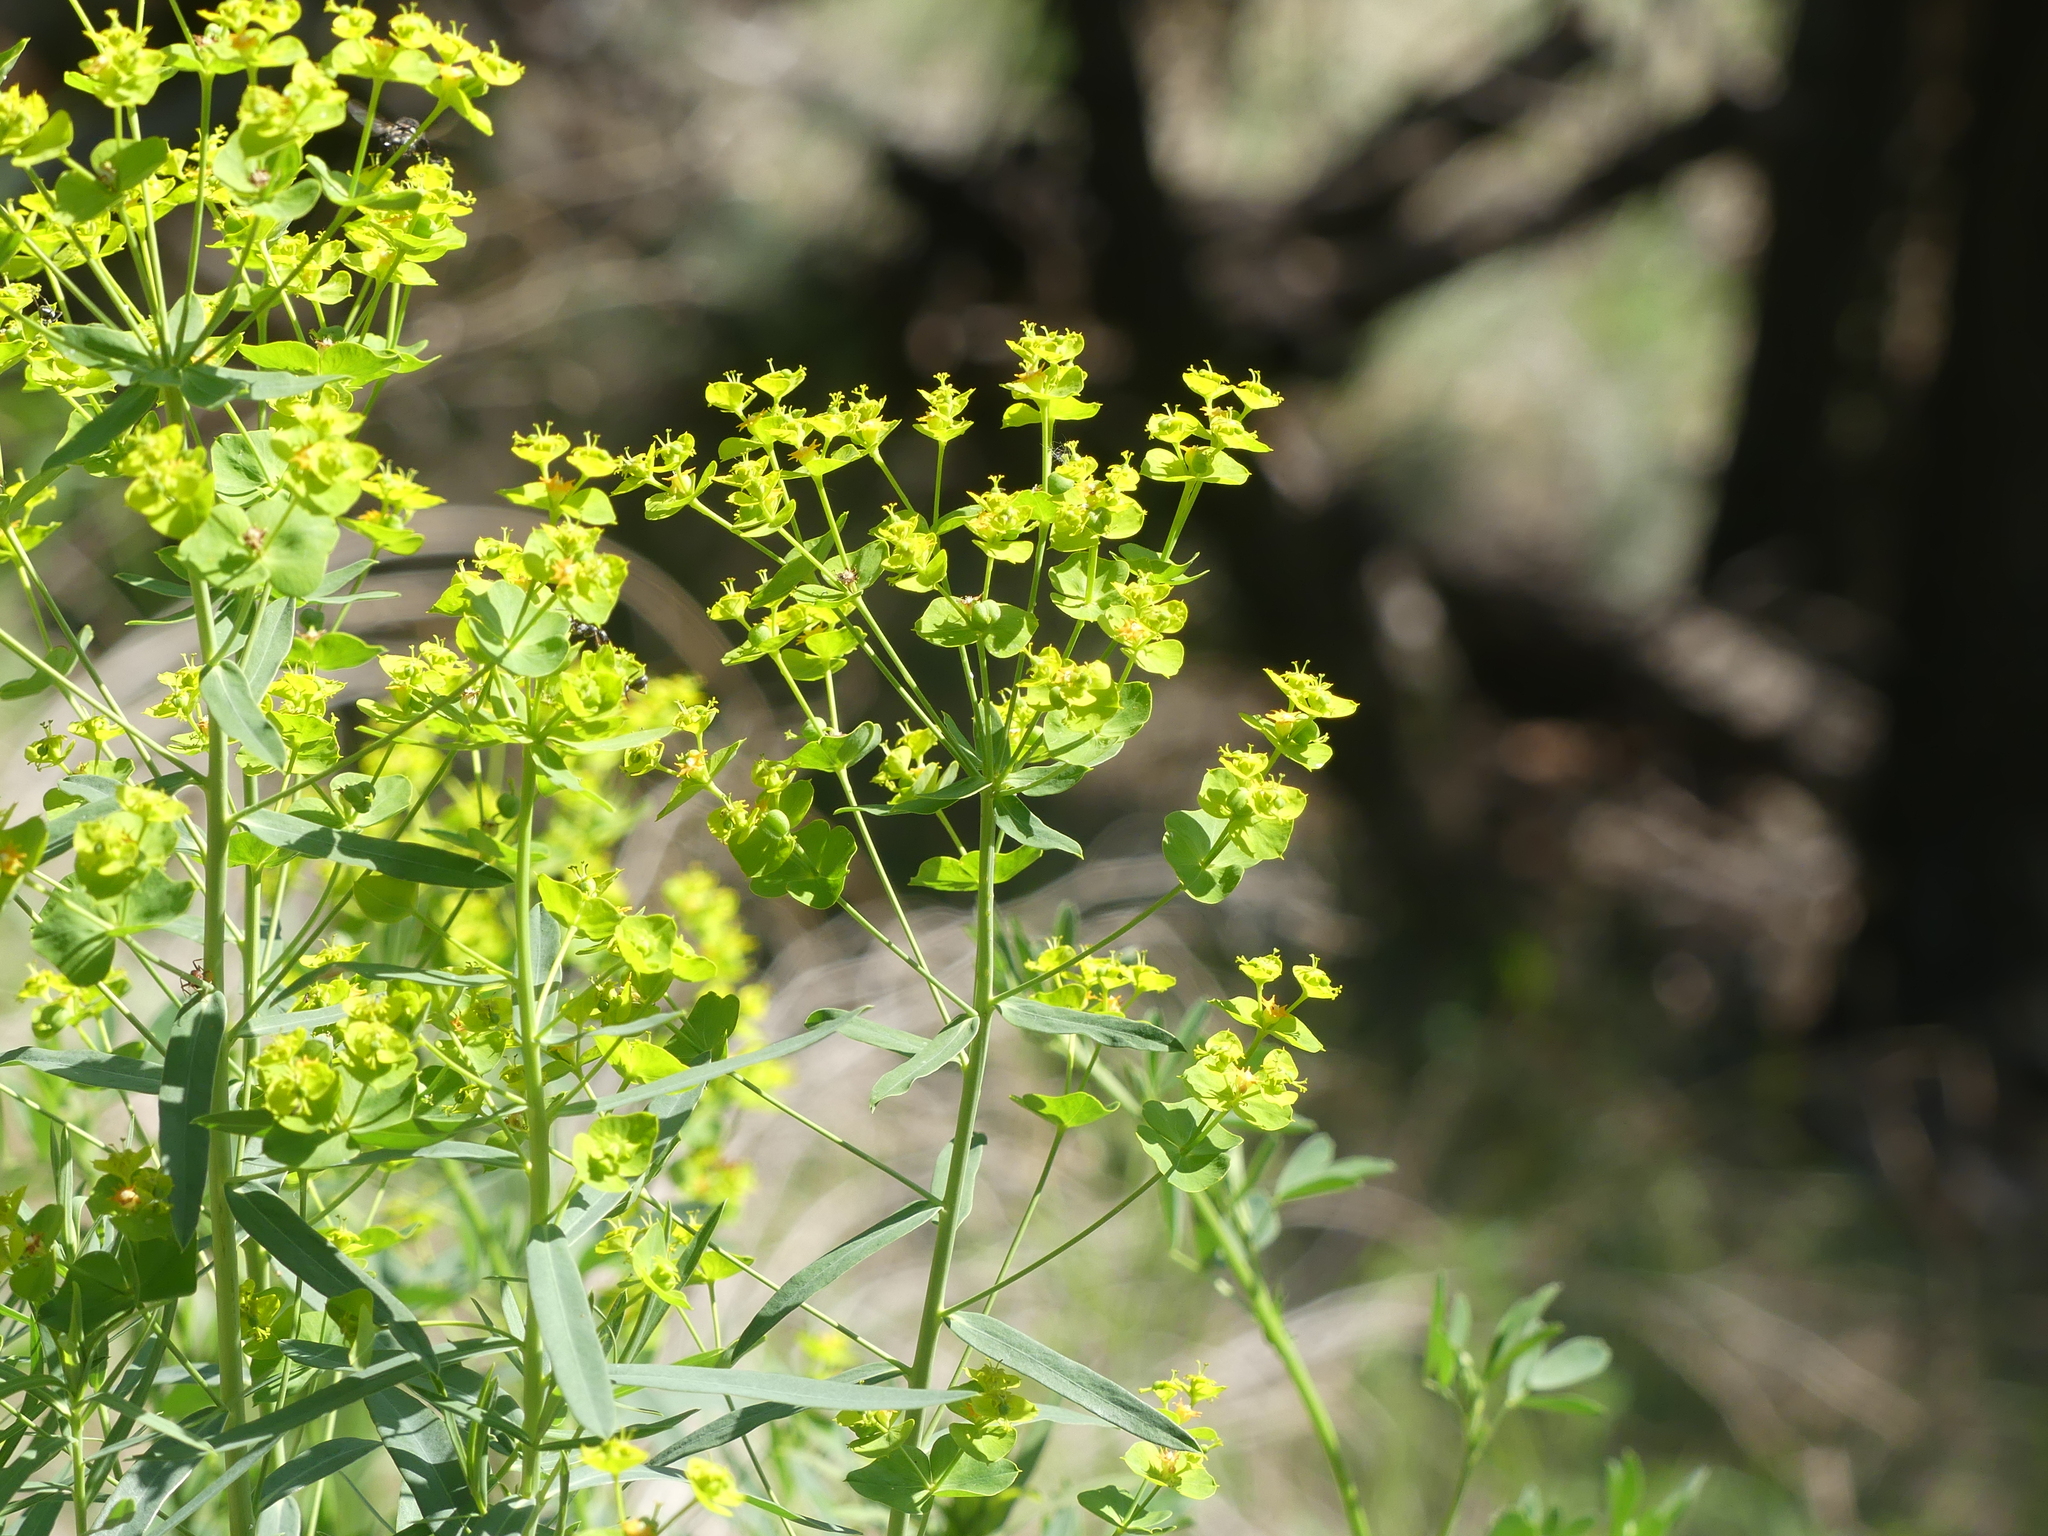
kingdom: Plantae
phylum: Tracheophyta
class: Magnoliopsida
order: Malpighiales
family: Euphorbiaceae
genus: Euphorbia
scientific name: Euphorbia virgata
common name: Leafy spurge
